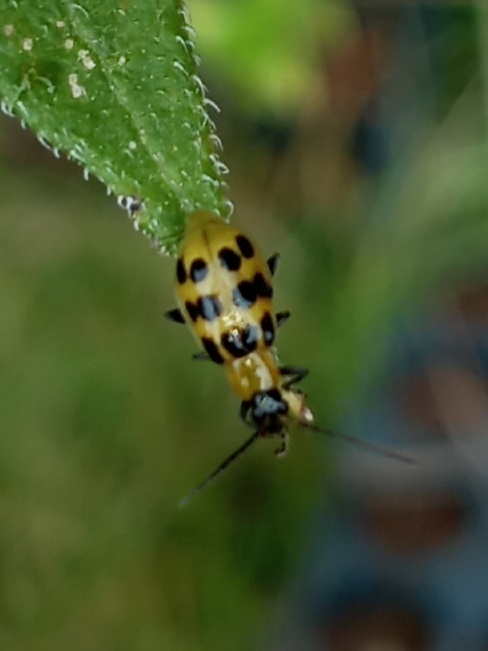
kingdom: Animalia
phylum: Arthropoda
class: Insecta
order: Coleoptera
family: Chrysomelidae
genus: Diabrotica
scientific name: Diabrotica undecimpunctata
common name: Spotted cucumber beetle
